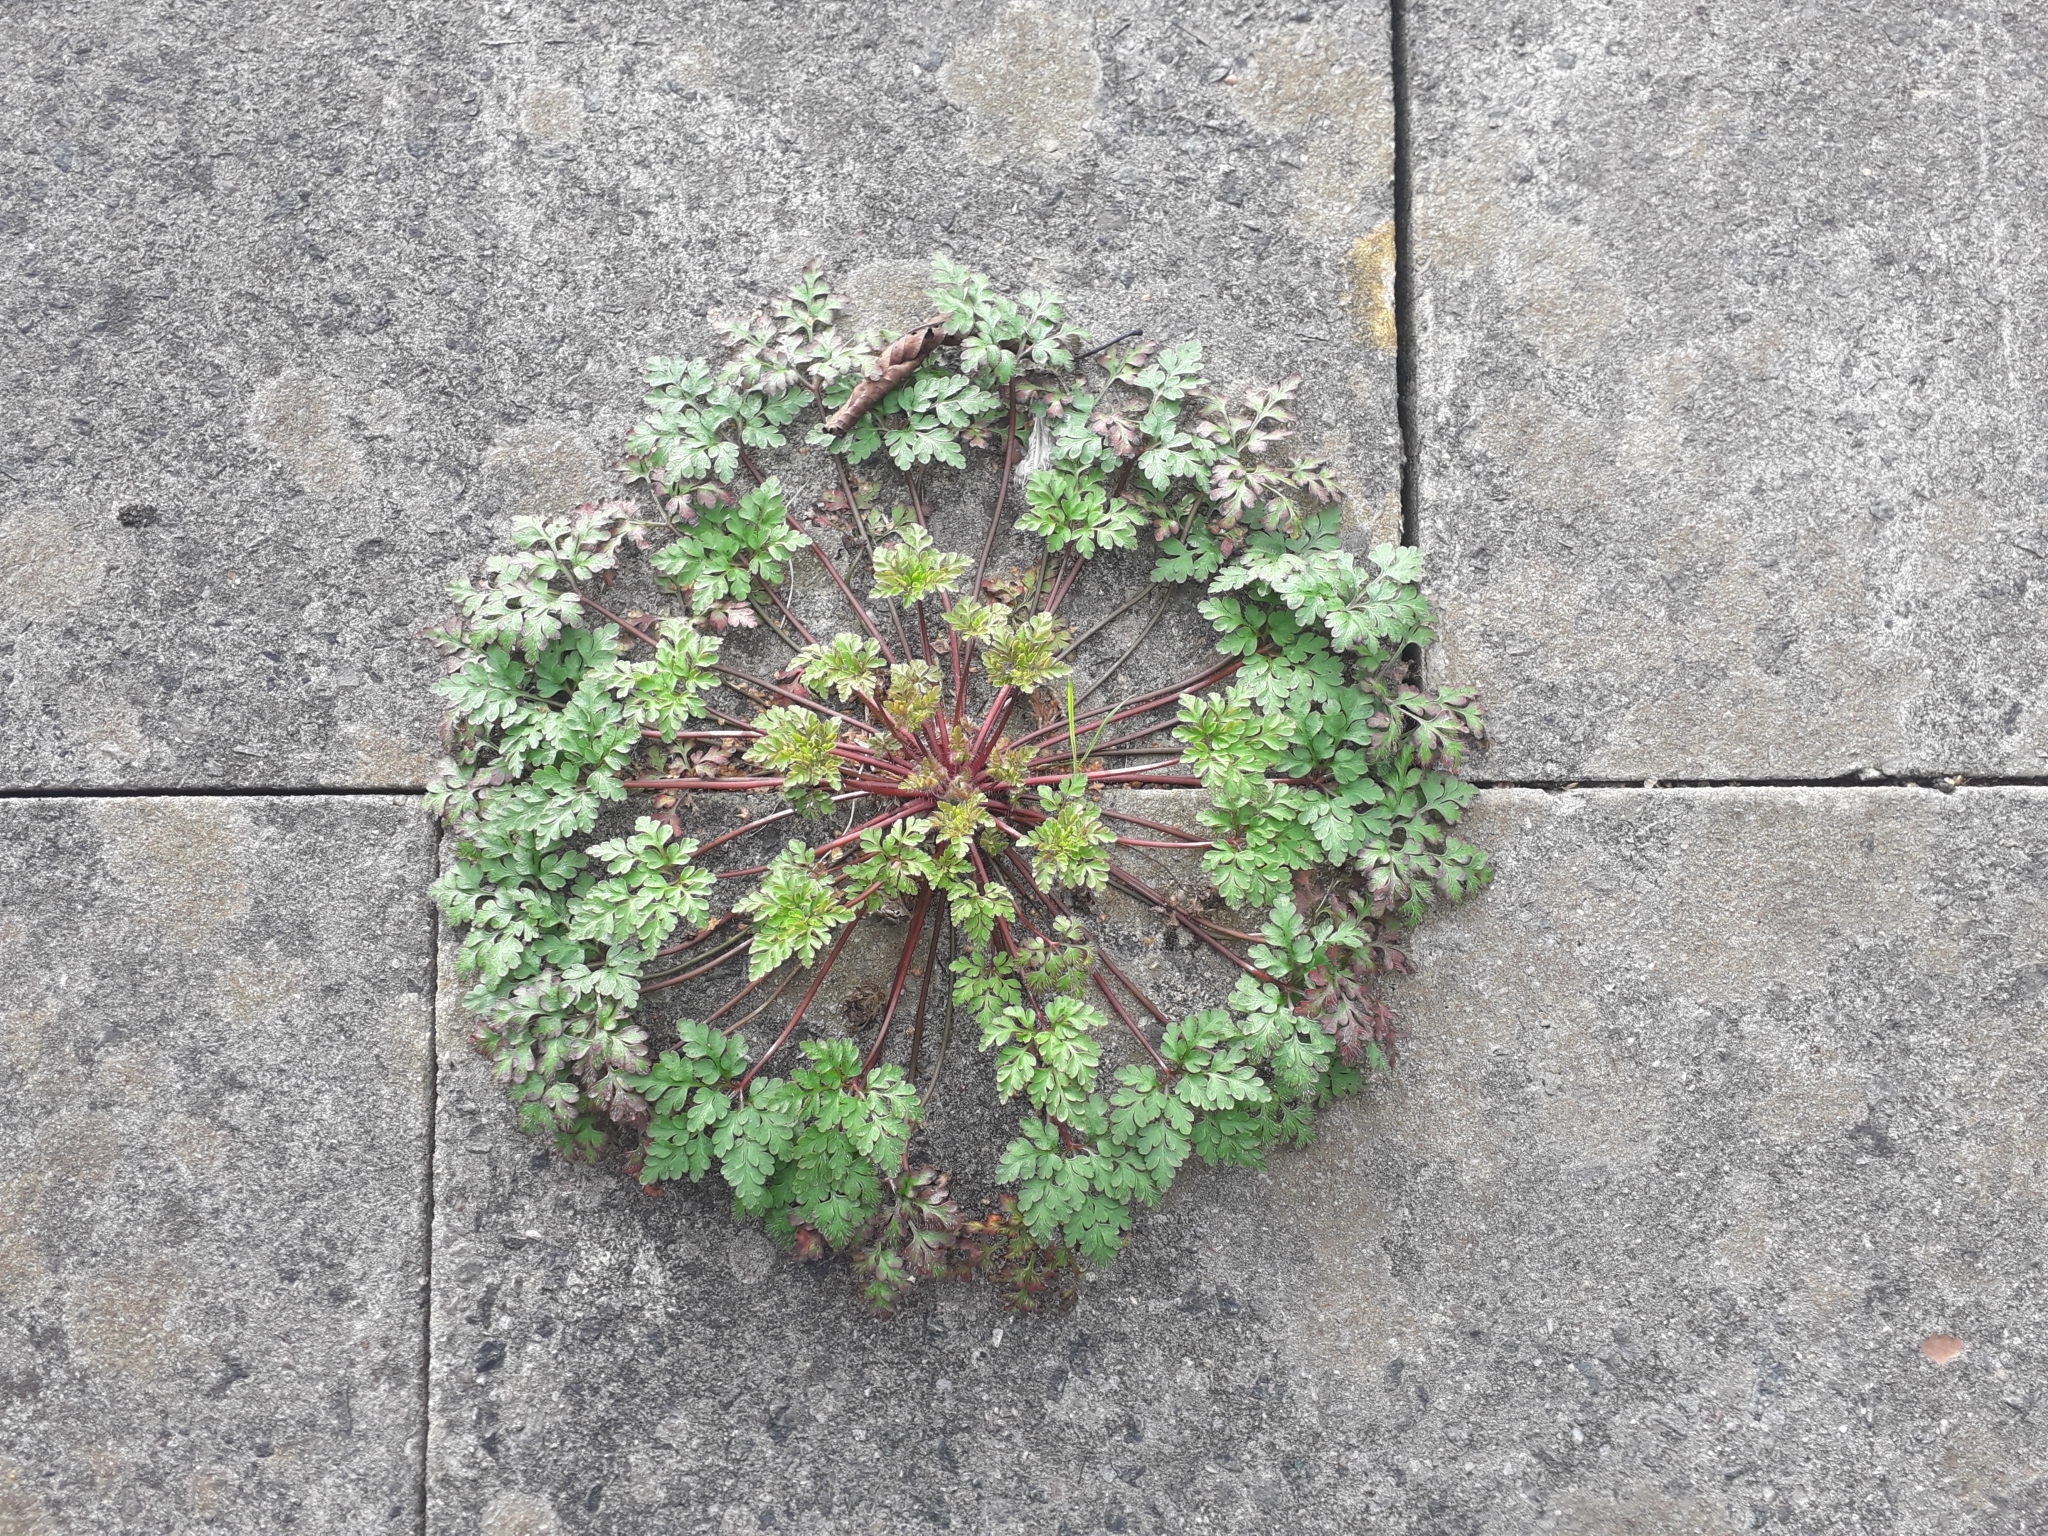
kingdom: Plantae
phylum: Tracheophyta
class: Magnoliopsida
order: Geraniales
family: Geraniaceae
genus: Geranium
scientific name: Geranium robertianum
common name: Herb-robert
